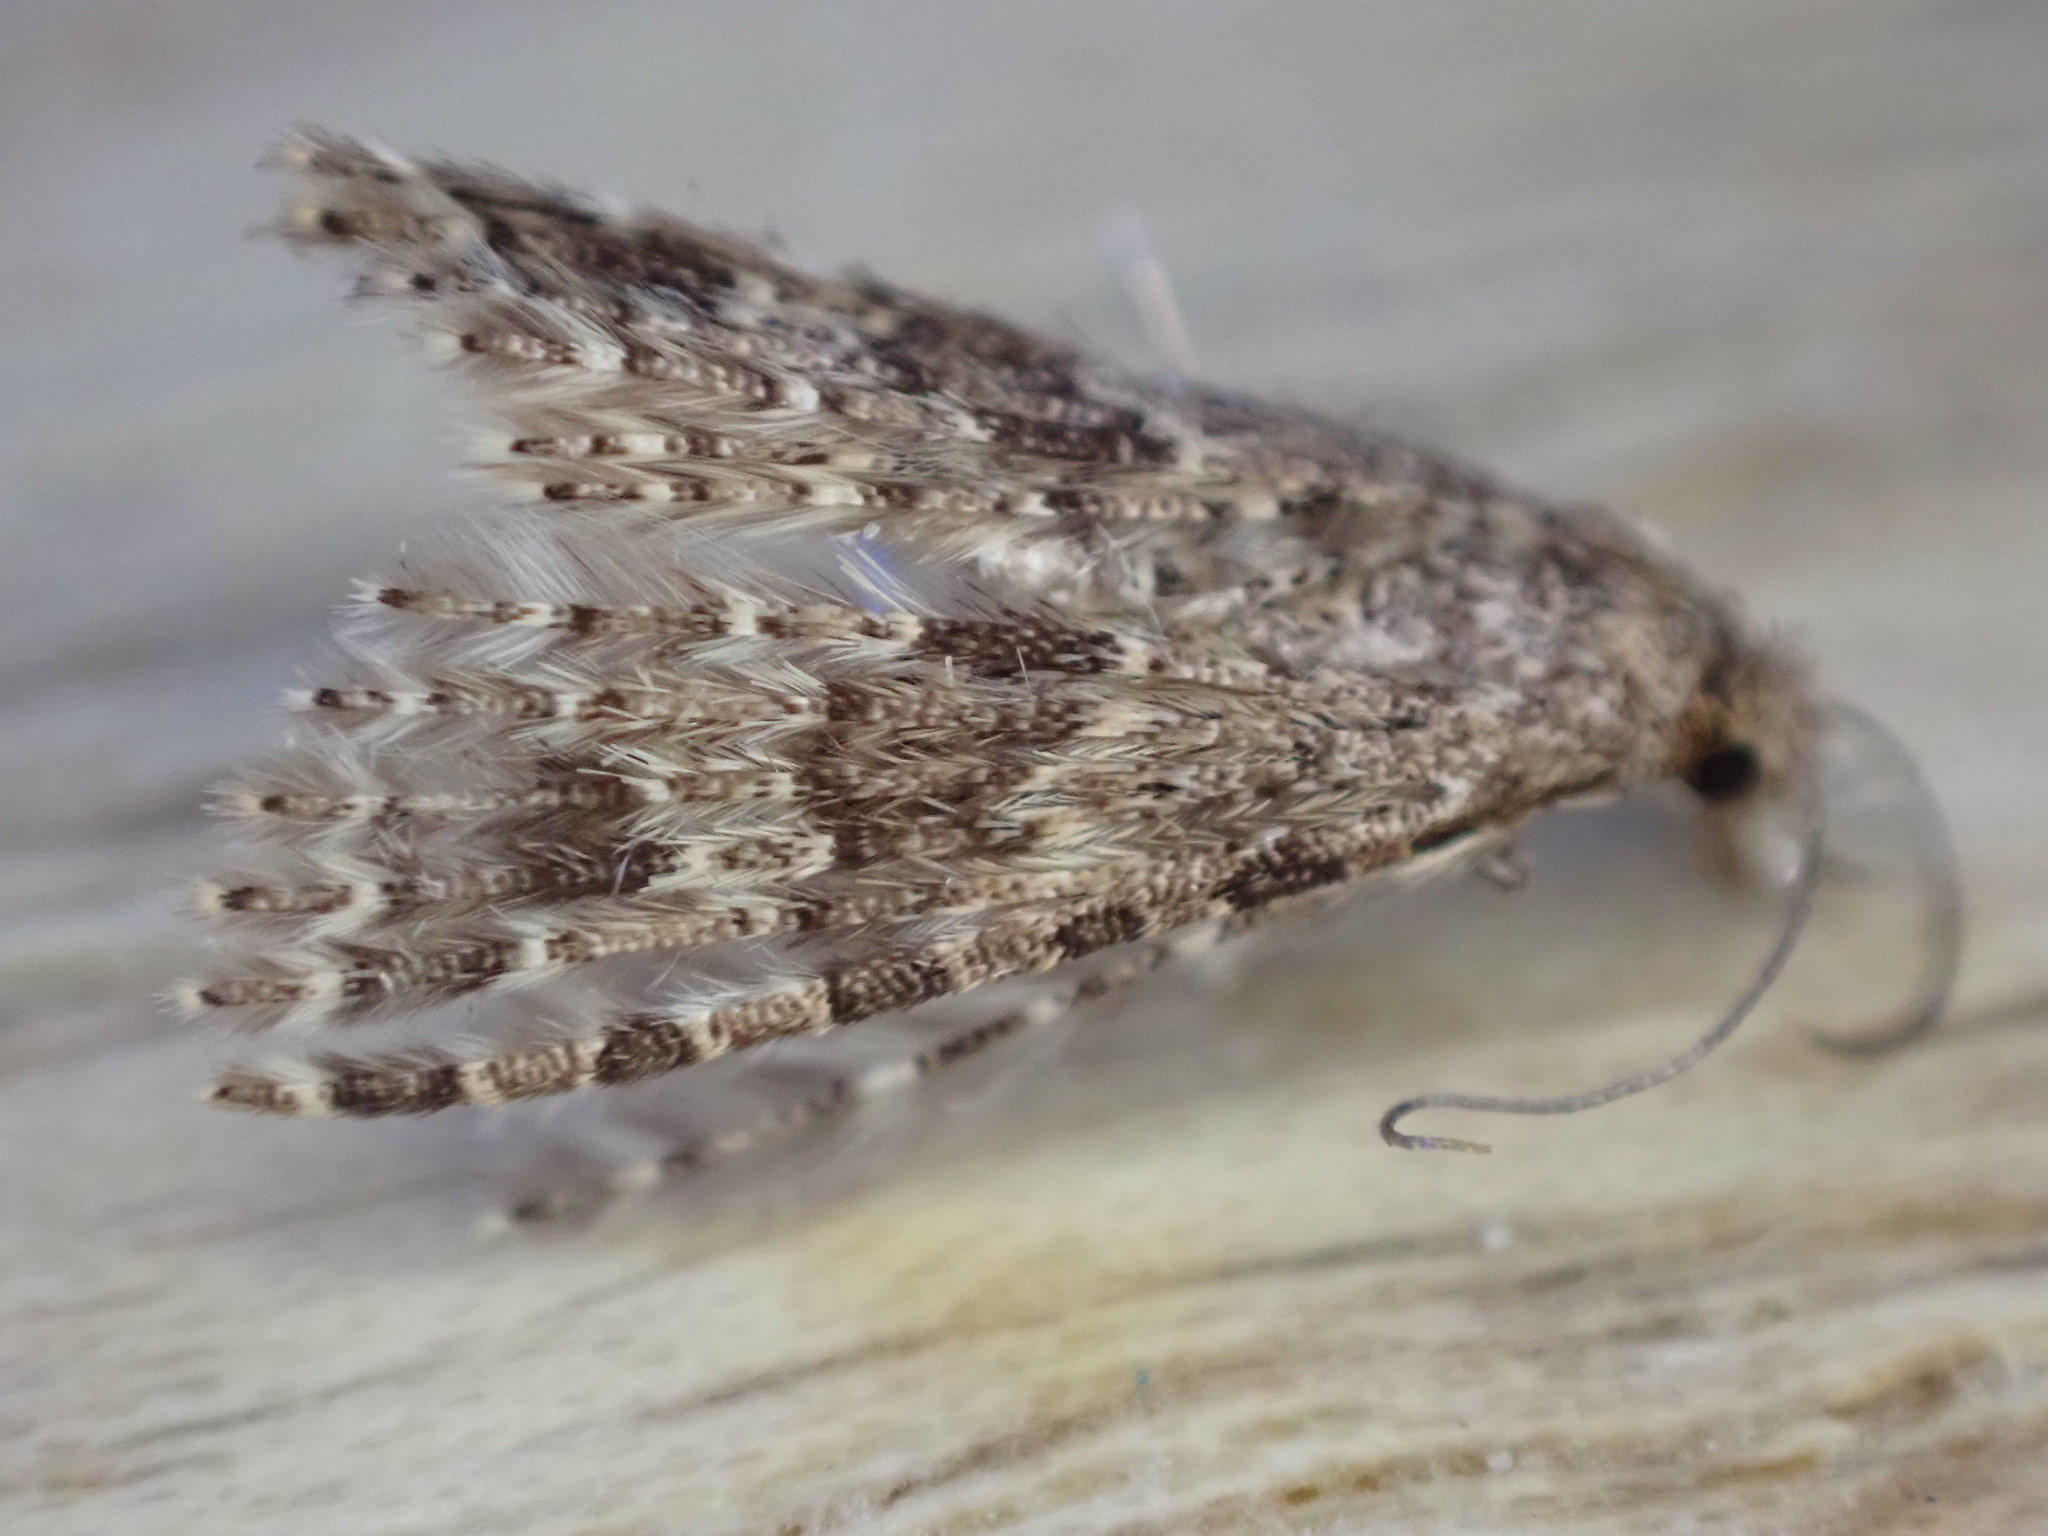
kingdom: Animalia
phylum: Arthropoda
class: Insecta
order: Lepidoptera
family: Alucitidae
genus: Alucita
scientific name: Alucita hexadactyla
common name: Twenty-plume moth
